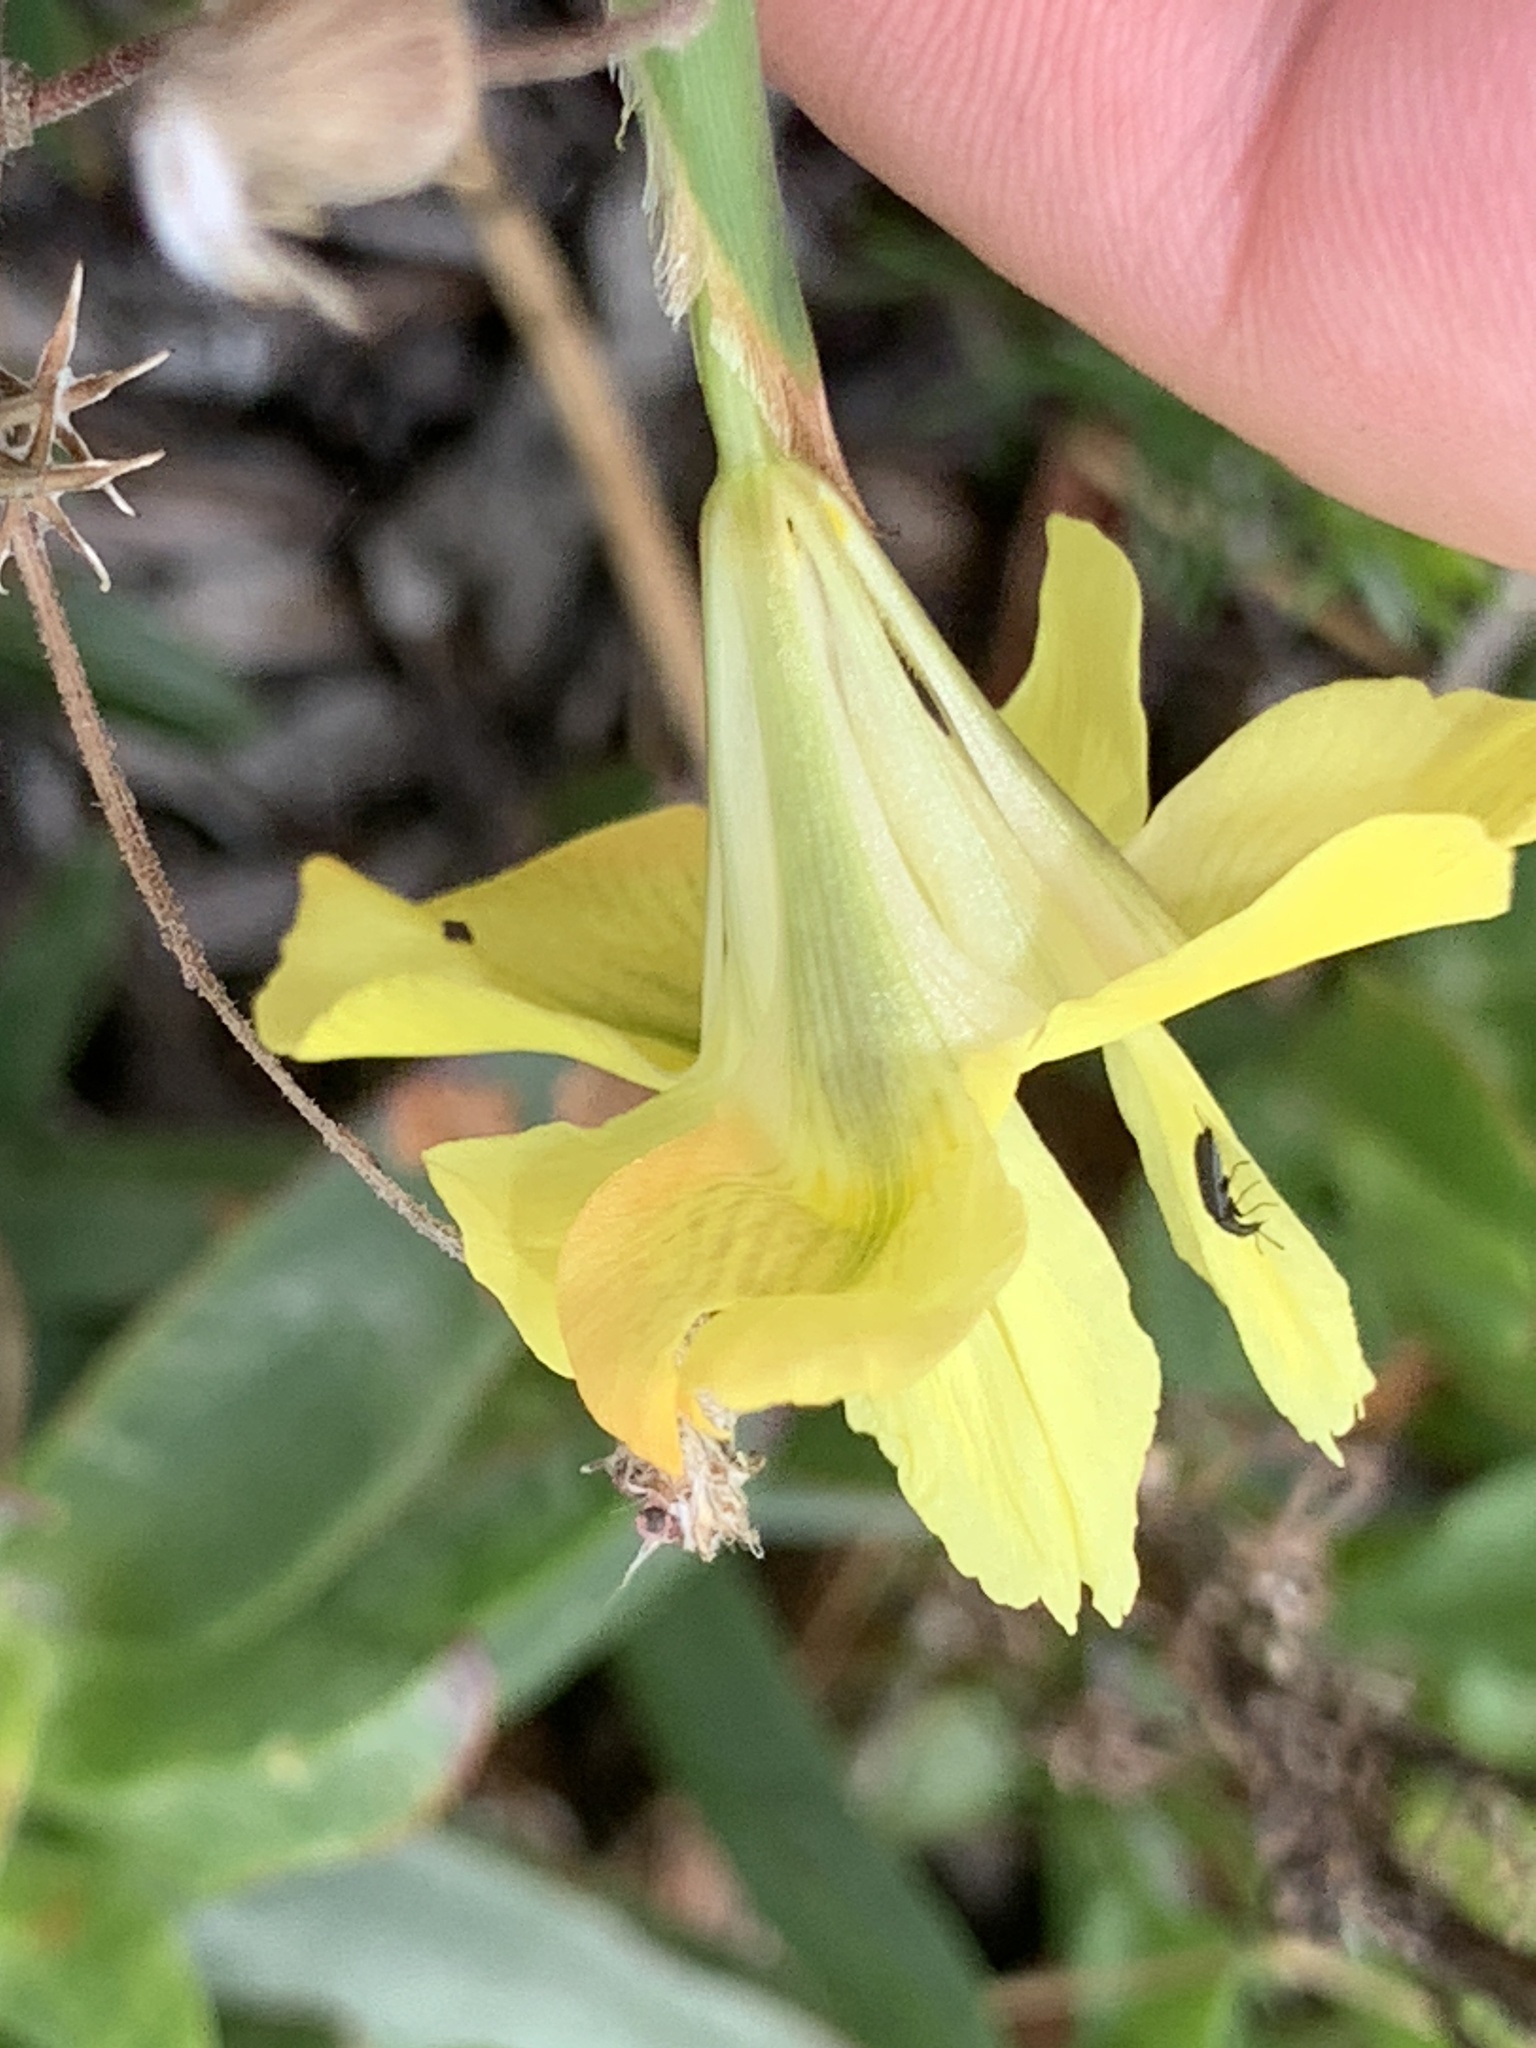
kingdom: Plantae
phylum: Tracheophyta
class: Liliopsida
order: Asparagales
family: Iridaceae
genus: Moraea
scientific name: Moraea fugax
